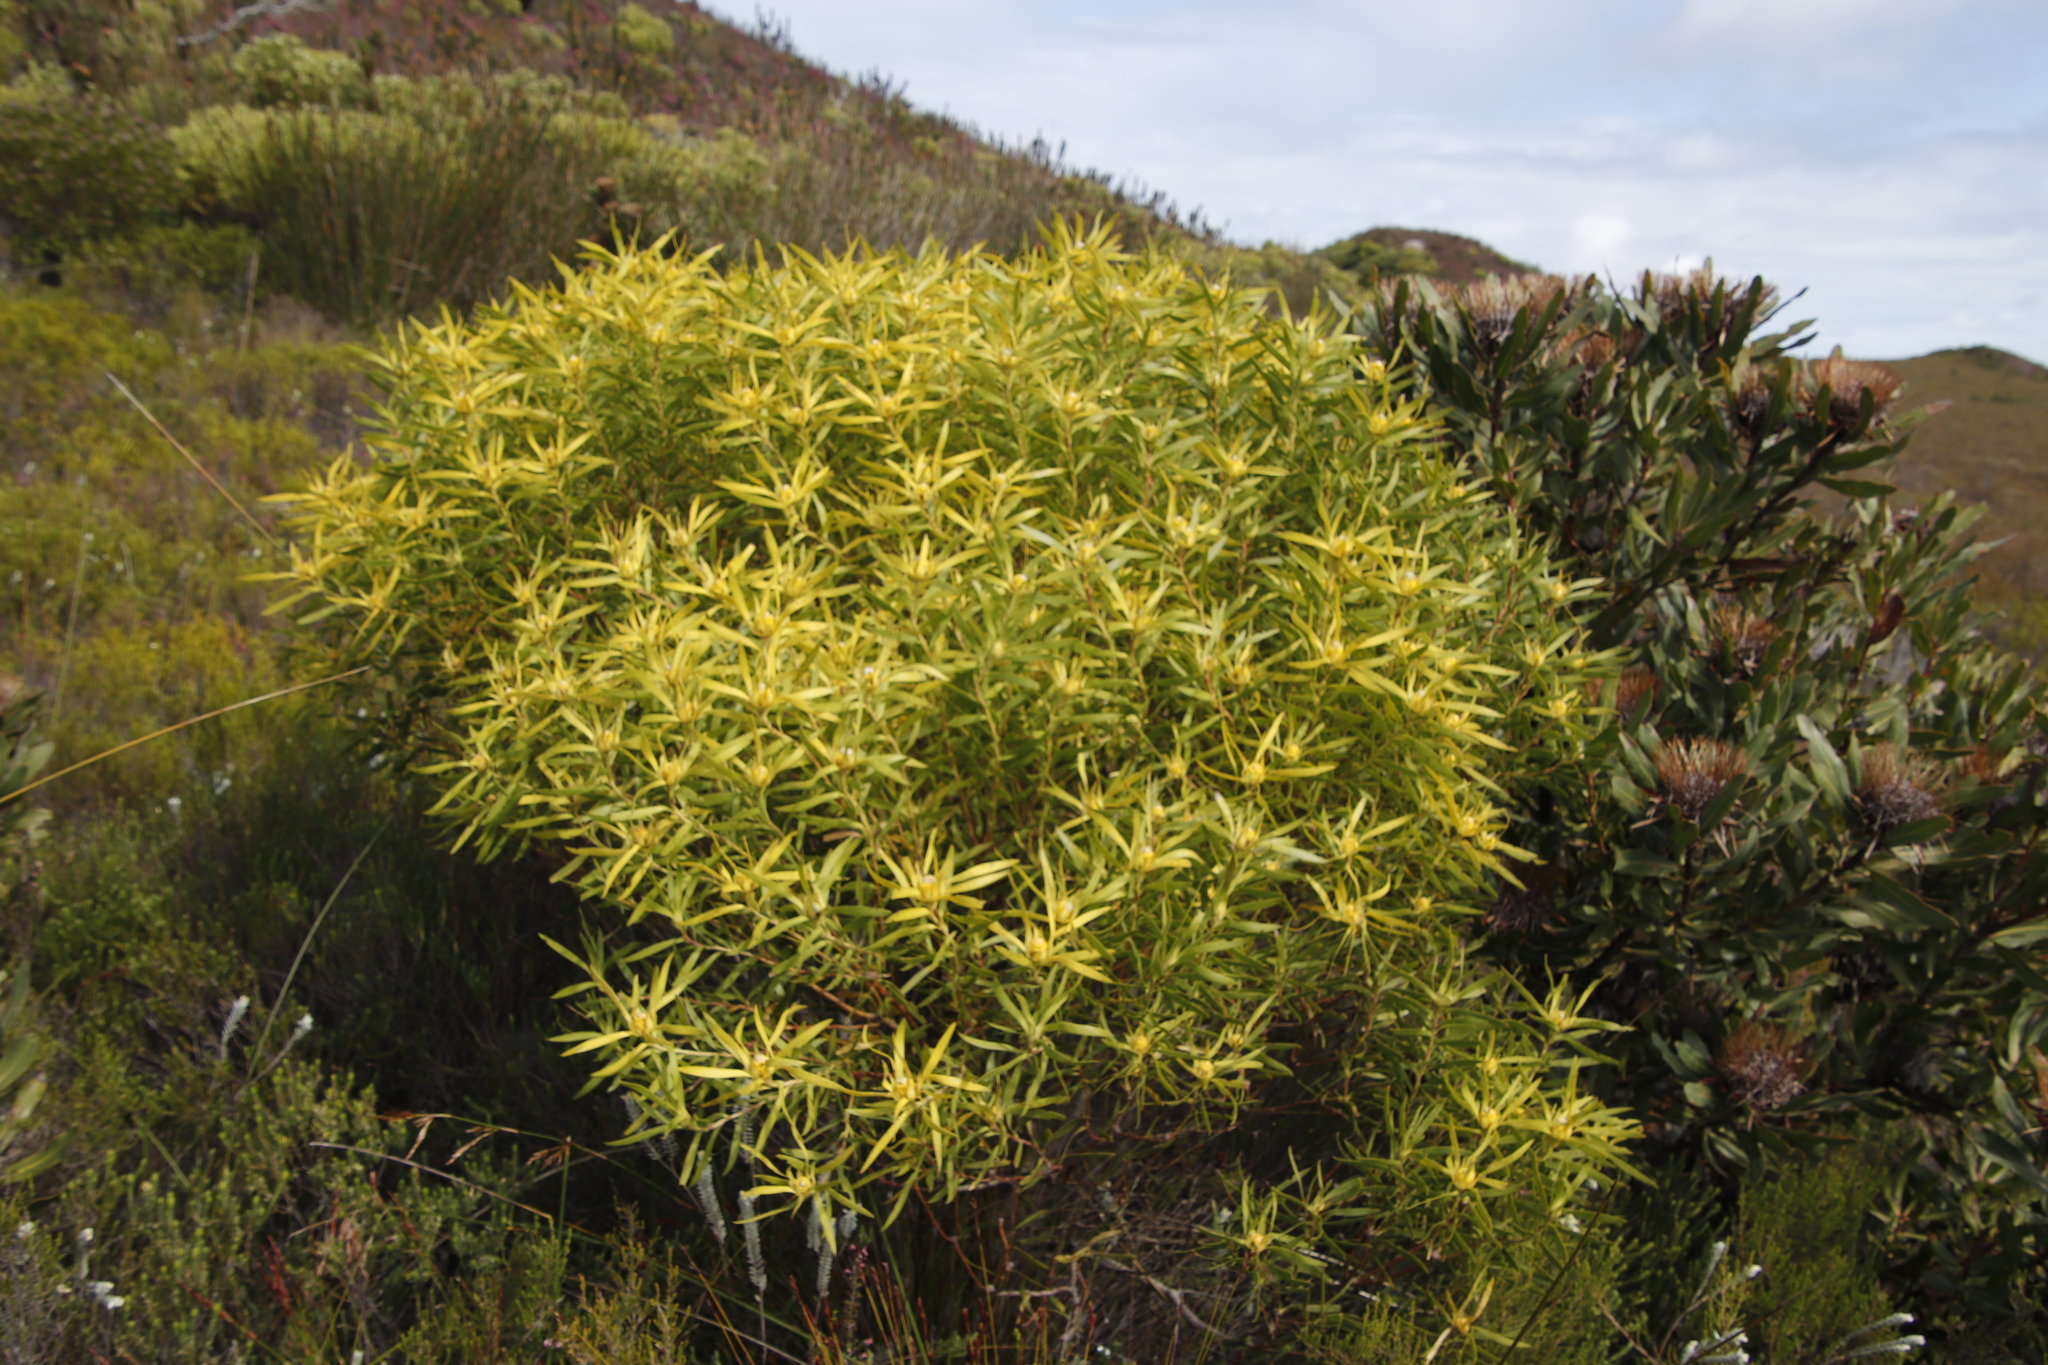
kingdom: Plantae
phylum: Tracheophyta
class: Magnoliopsida
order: Proteales
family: Proteaceae
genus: Leucadendron
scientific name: Leucadendron coniferum
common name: Dune conebush
